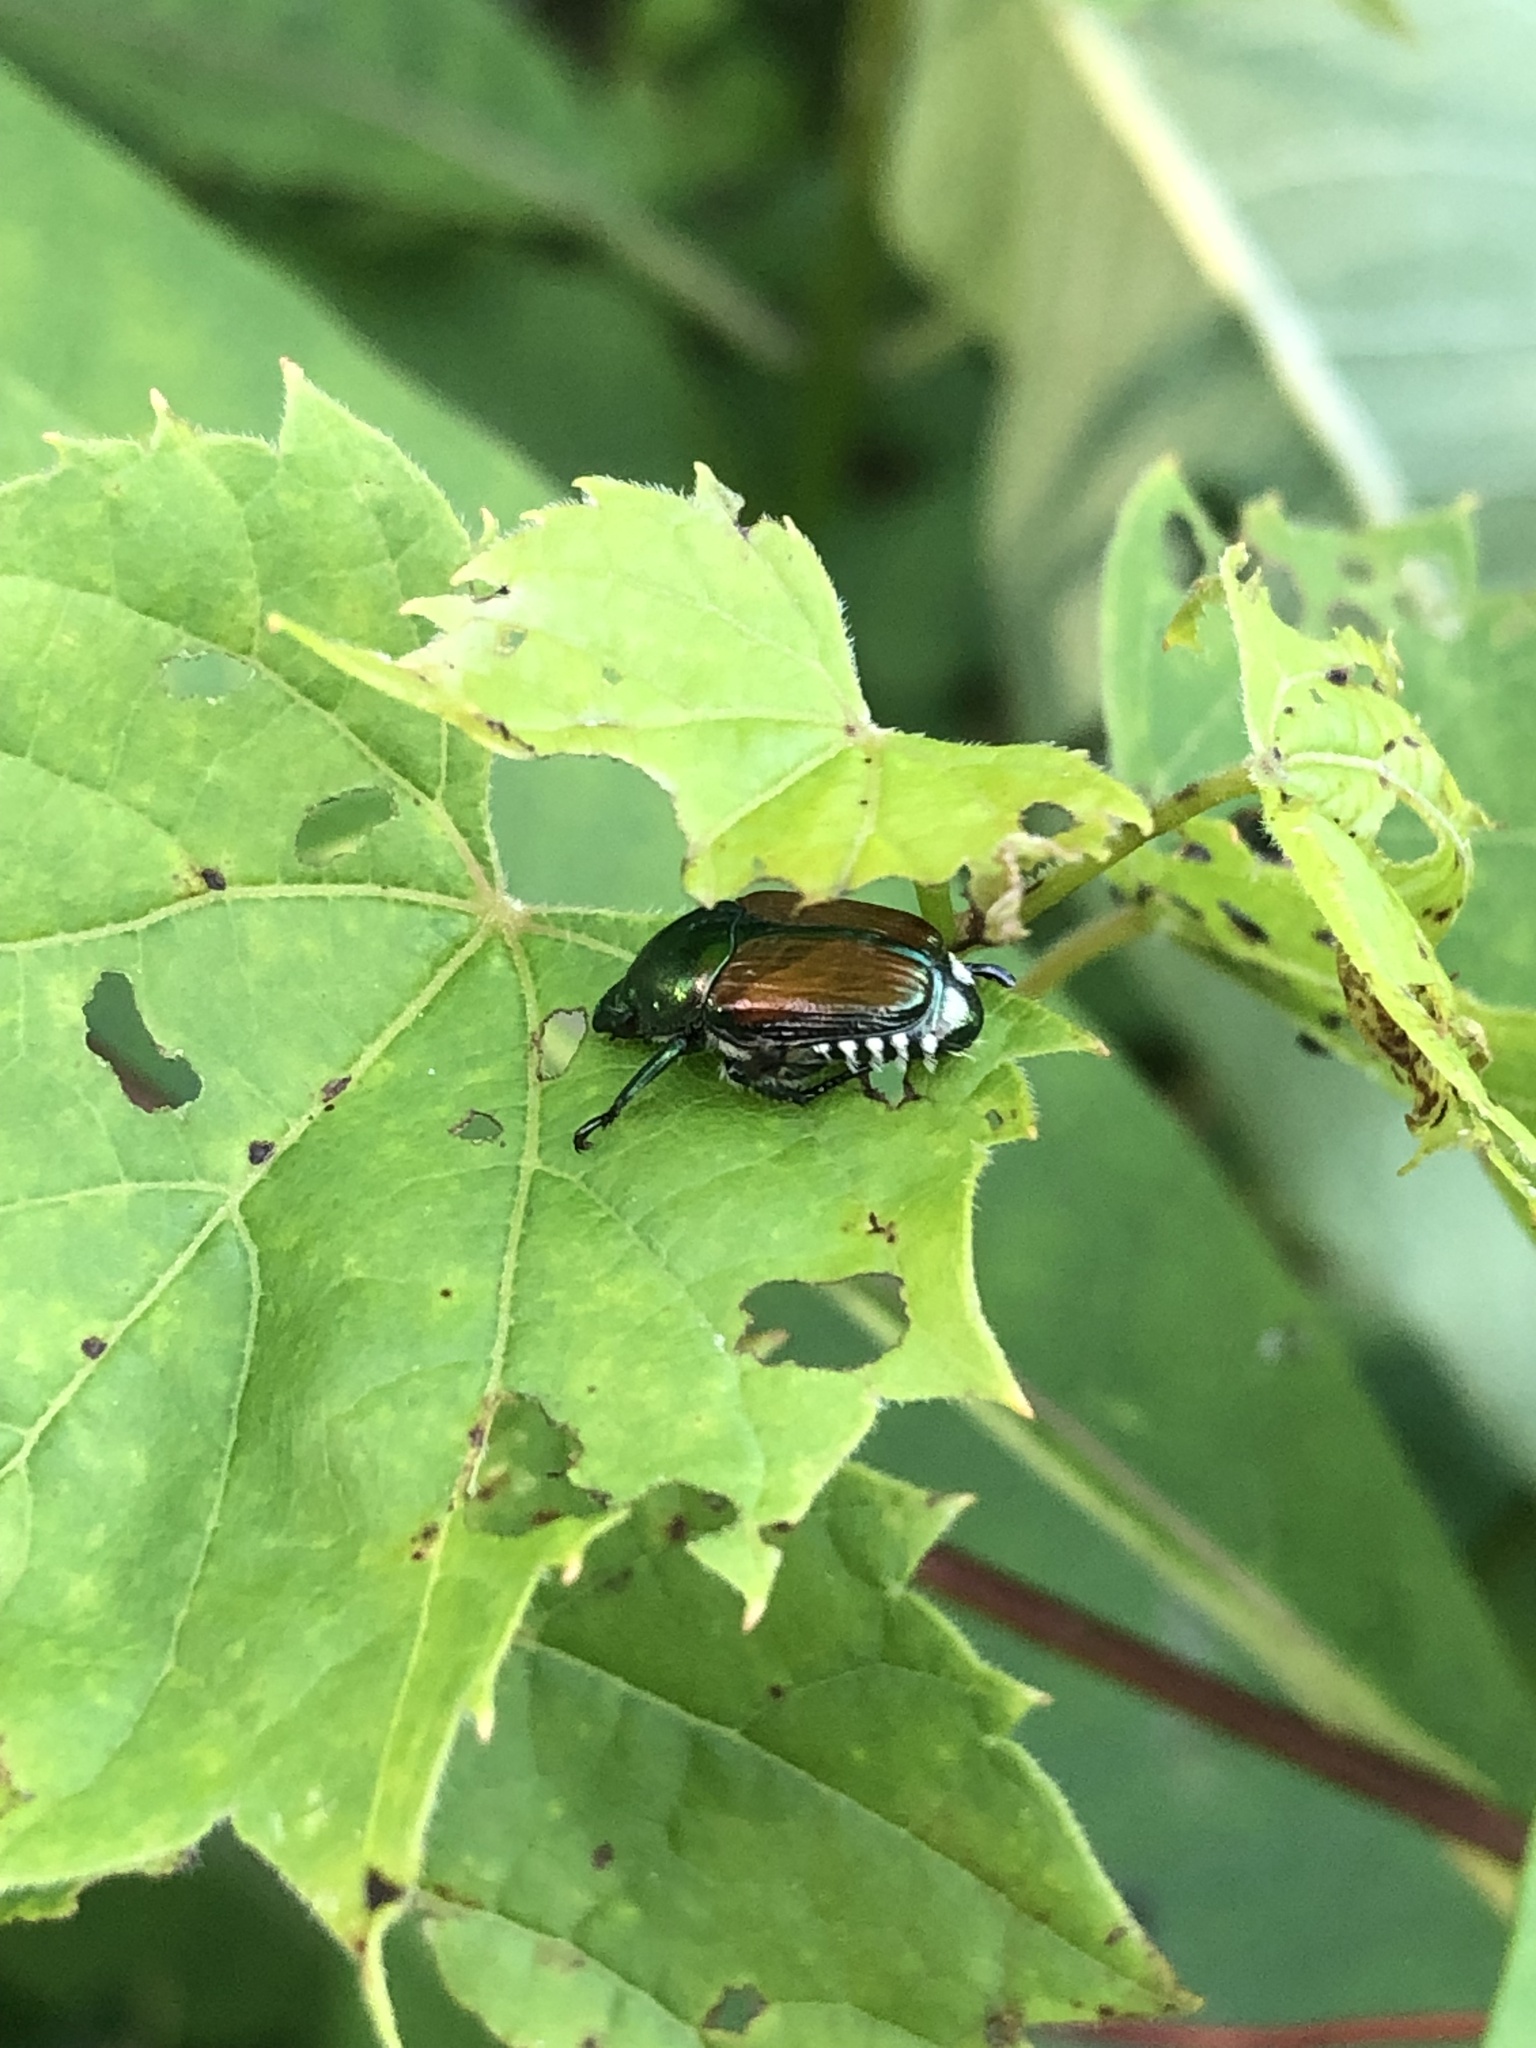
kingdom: Animalia
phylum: Arthropoda
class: Insecta
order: Coleoptera
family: Scarabaeidae
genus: Popillia
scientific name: Popillia japonica
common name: Japanese beetle
